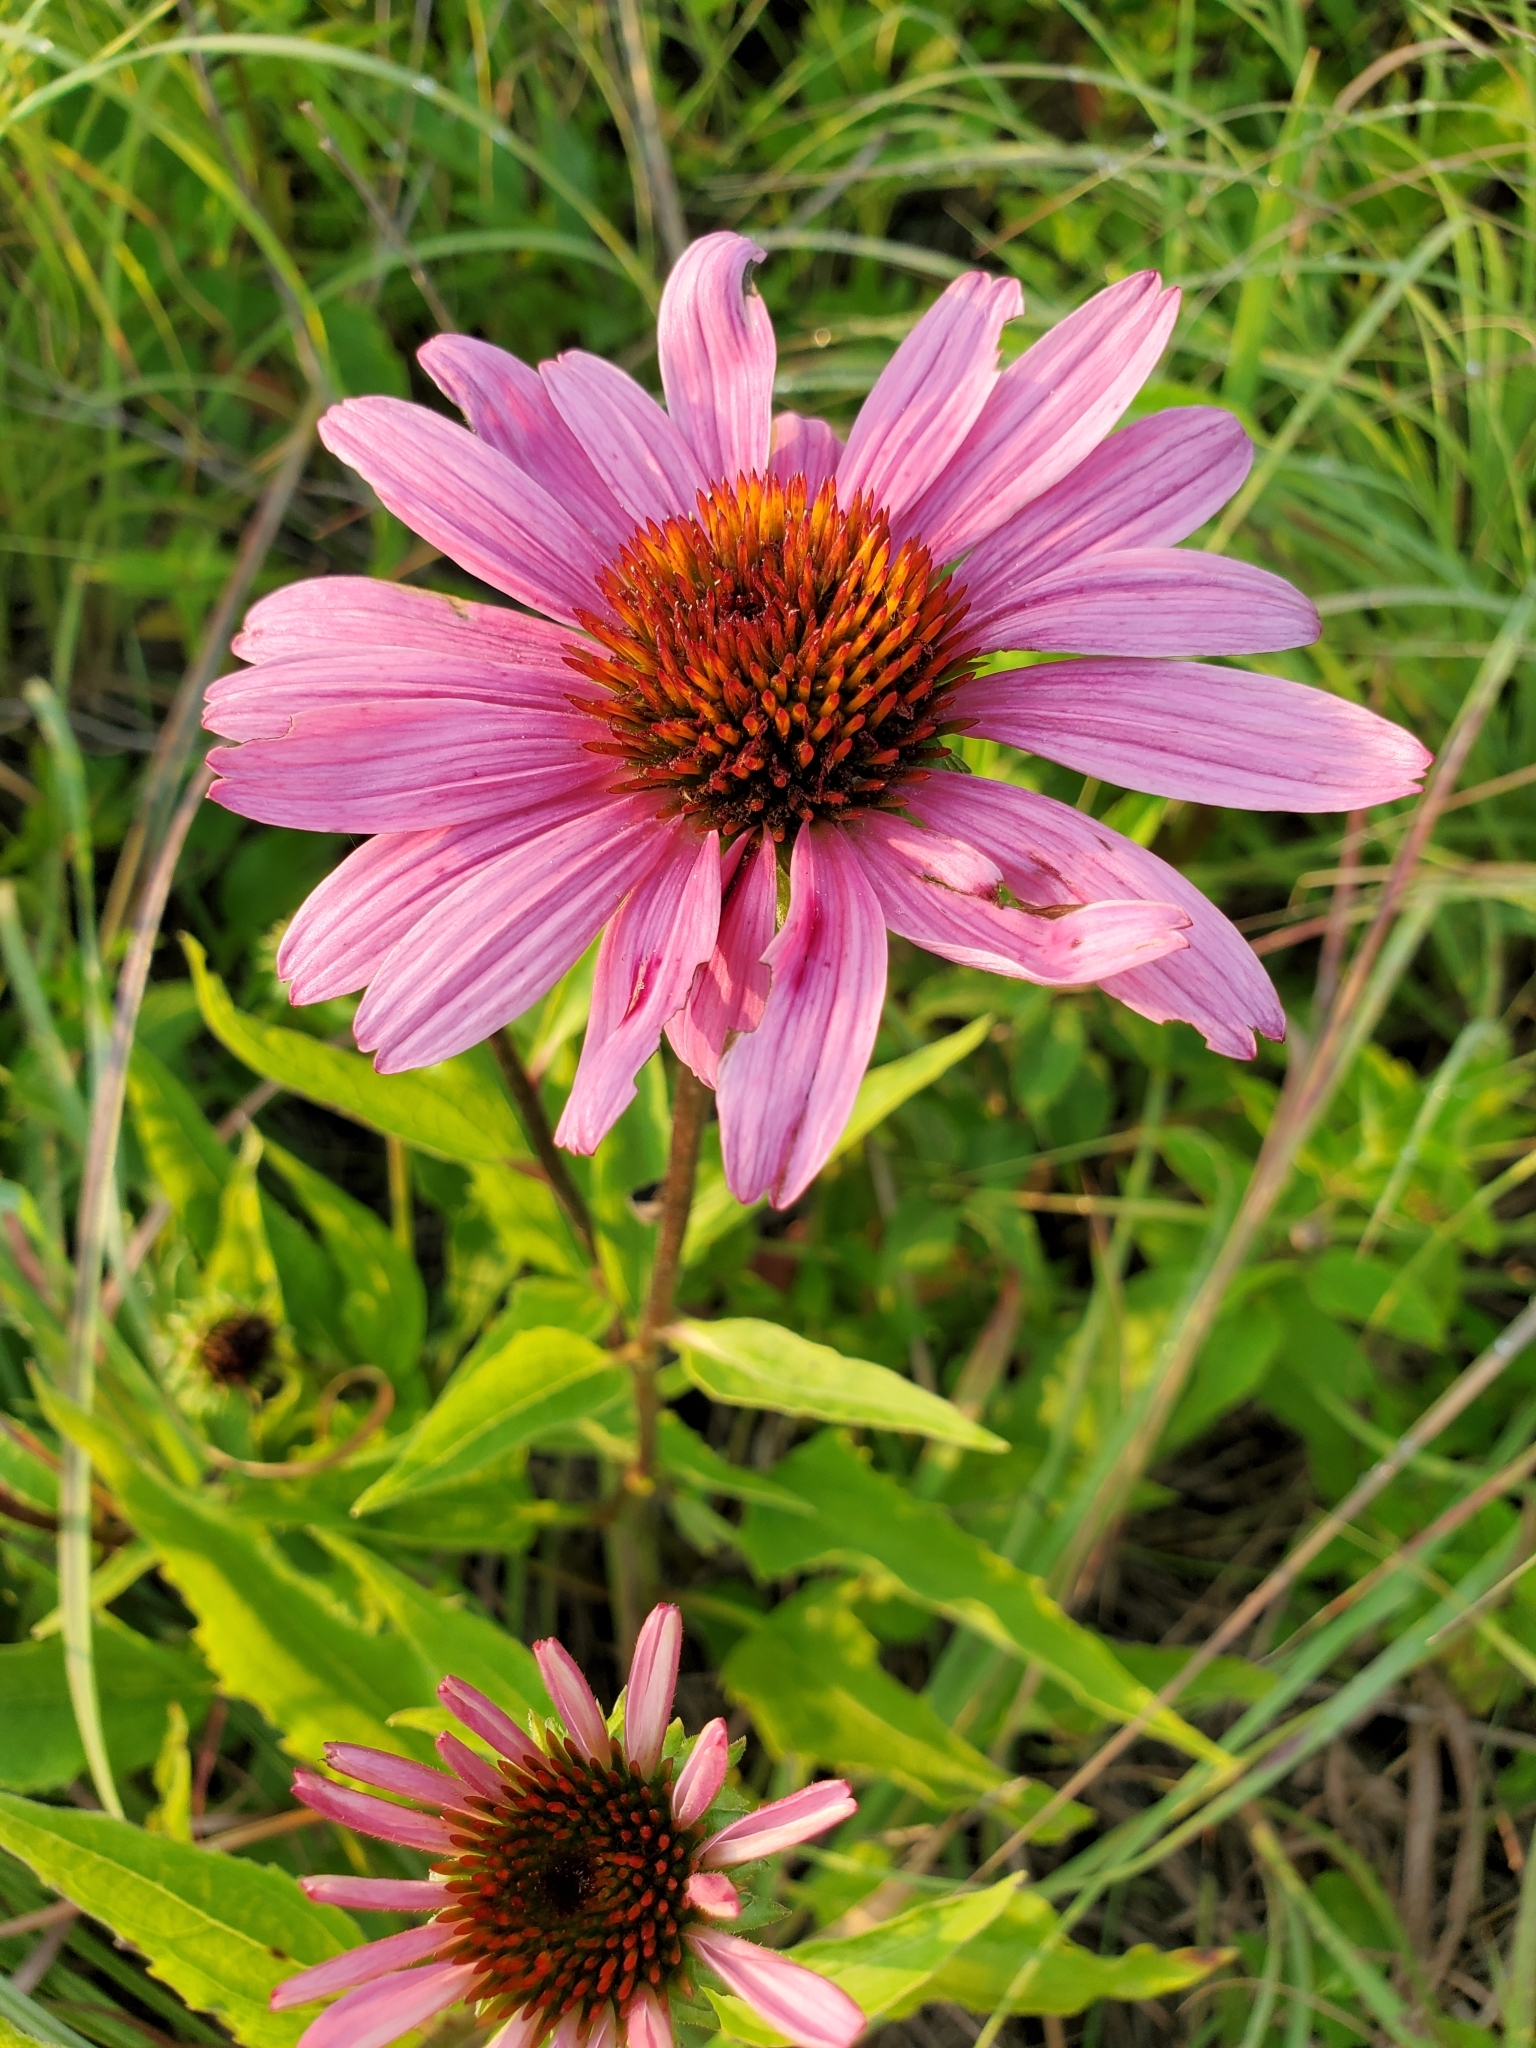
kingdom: Plantae
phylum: Tracheophyta
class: Magnoliopsida
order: Asterales
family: Asteraceae
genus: Echinacea
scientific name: Echinacea purpurea
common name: Broad-leaved purple coneflower
